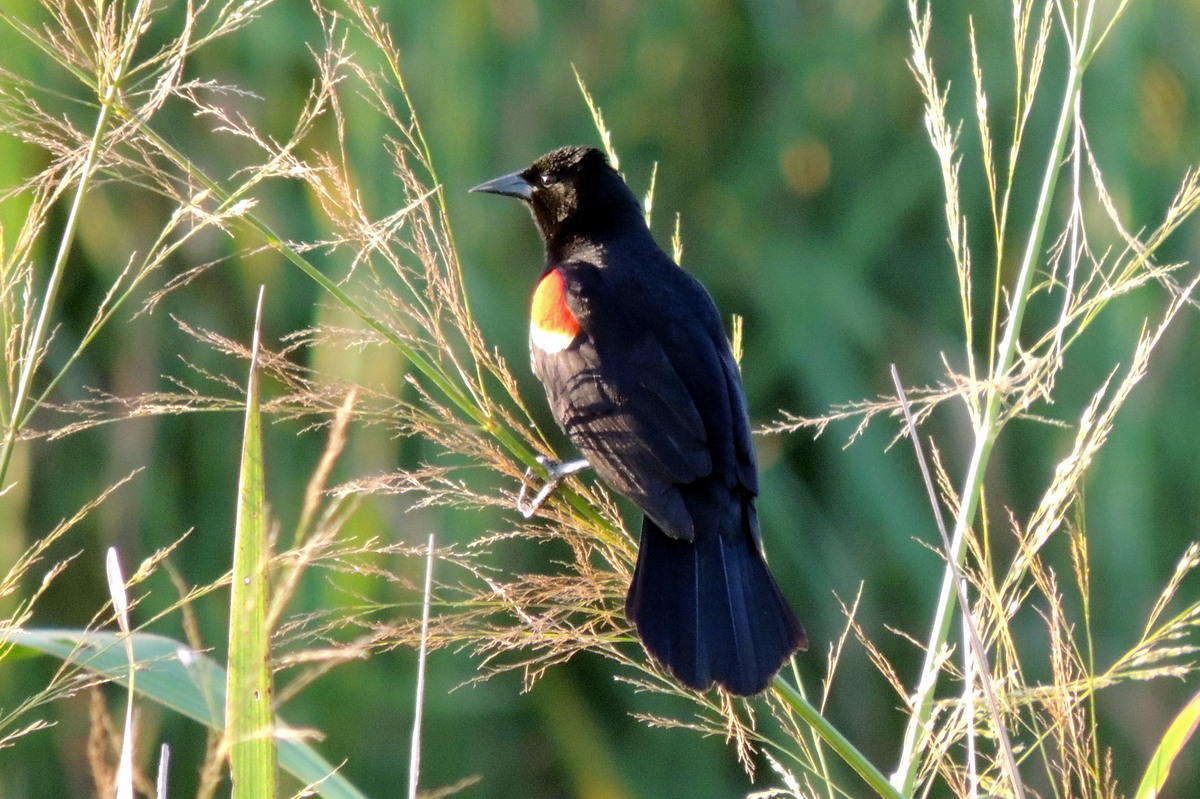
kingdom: Animalia
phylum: Chordata
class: Aves
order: Passeriformes
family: Icteridae
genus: Agelaius
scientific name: Agelaius phoeniceus
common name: Red-winged blackbird
